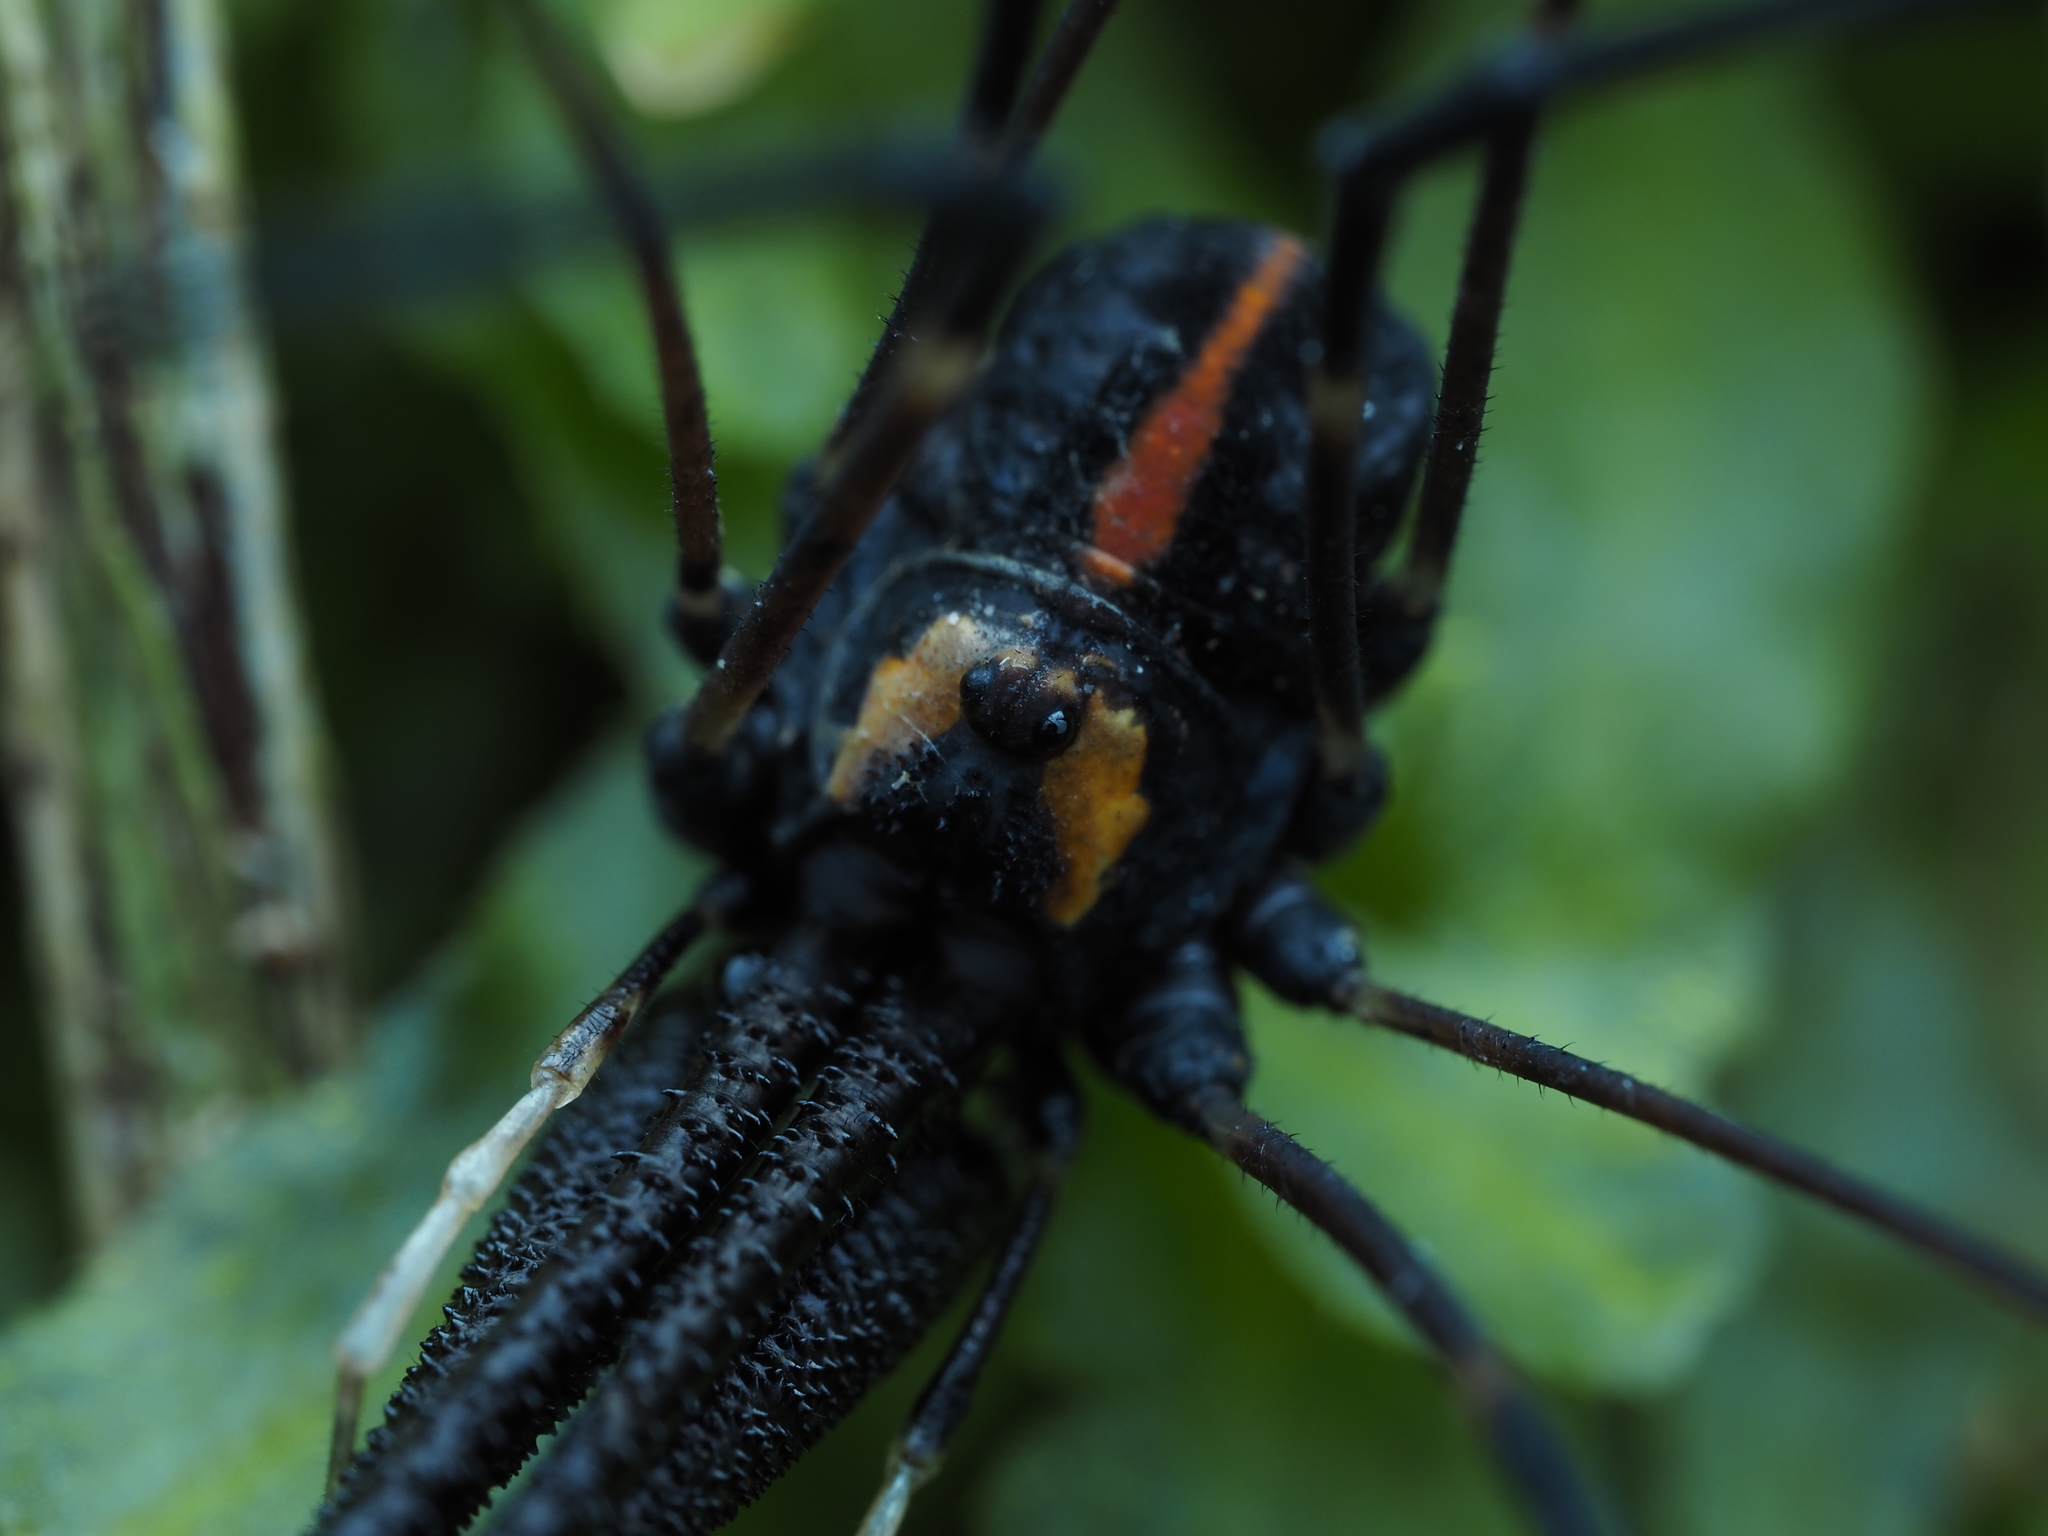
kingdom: Animalia
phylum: Arthropoda
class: Arachnida
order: Opiliones
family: Neopilionidae
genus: Forsteropsalis
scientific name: Forsteropsalis pureora
